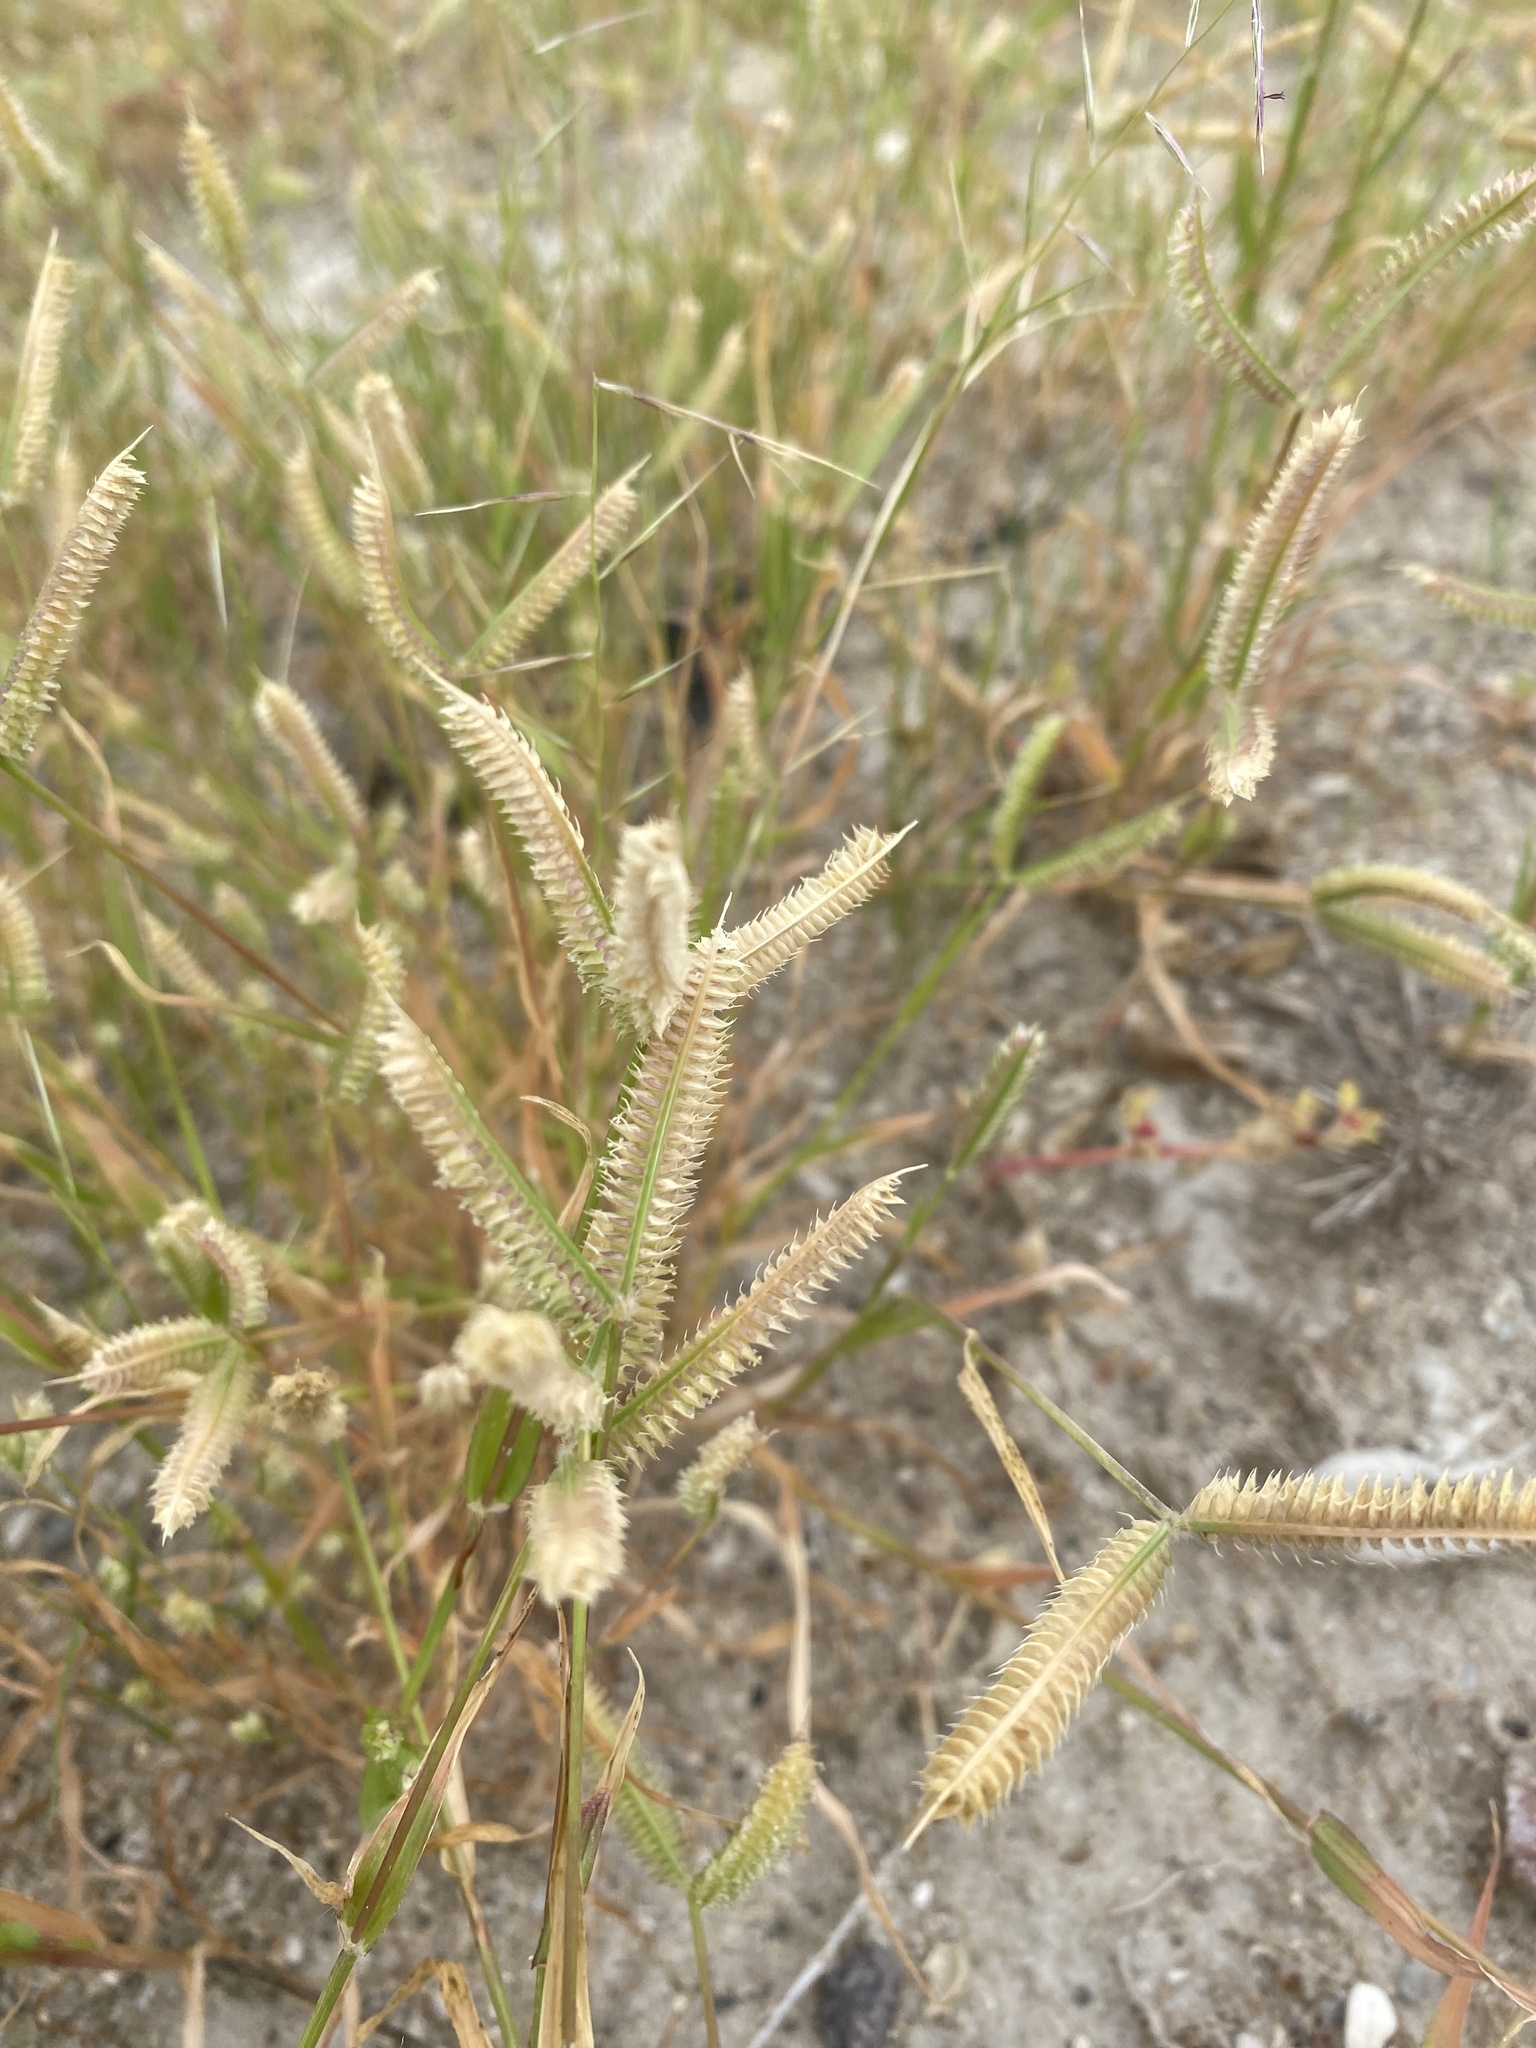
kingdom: Plantae
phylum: Tracheophyta
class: Liliopsida
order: Poales
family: Poaceae
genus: Dactyloctenium
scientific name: Dactyloctenium aegyptium
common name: Egyptian grass
